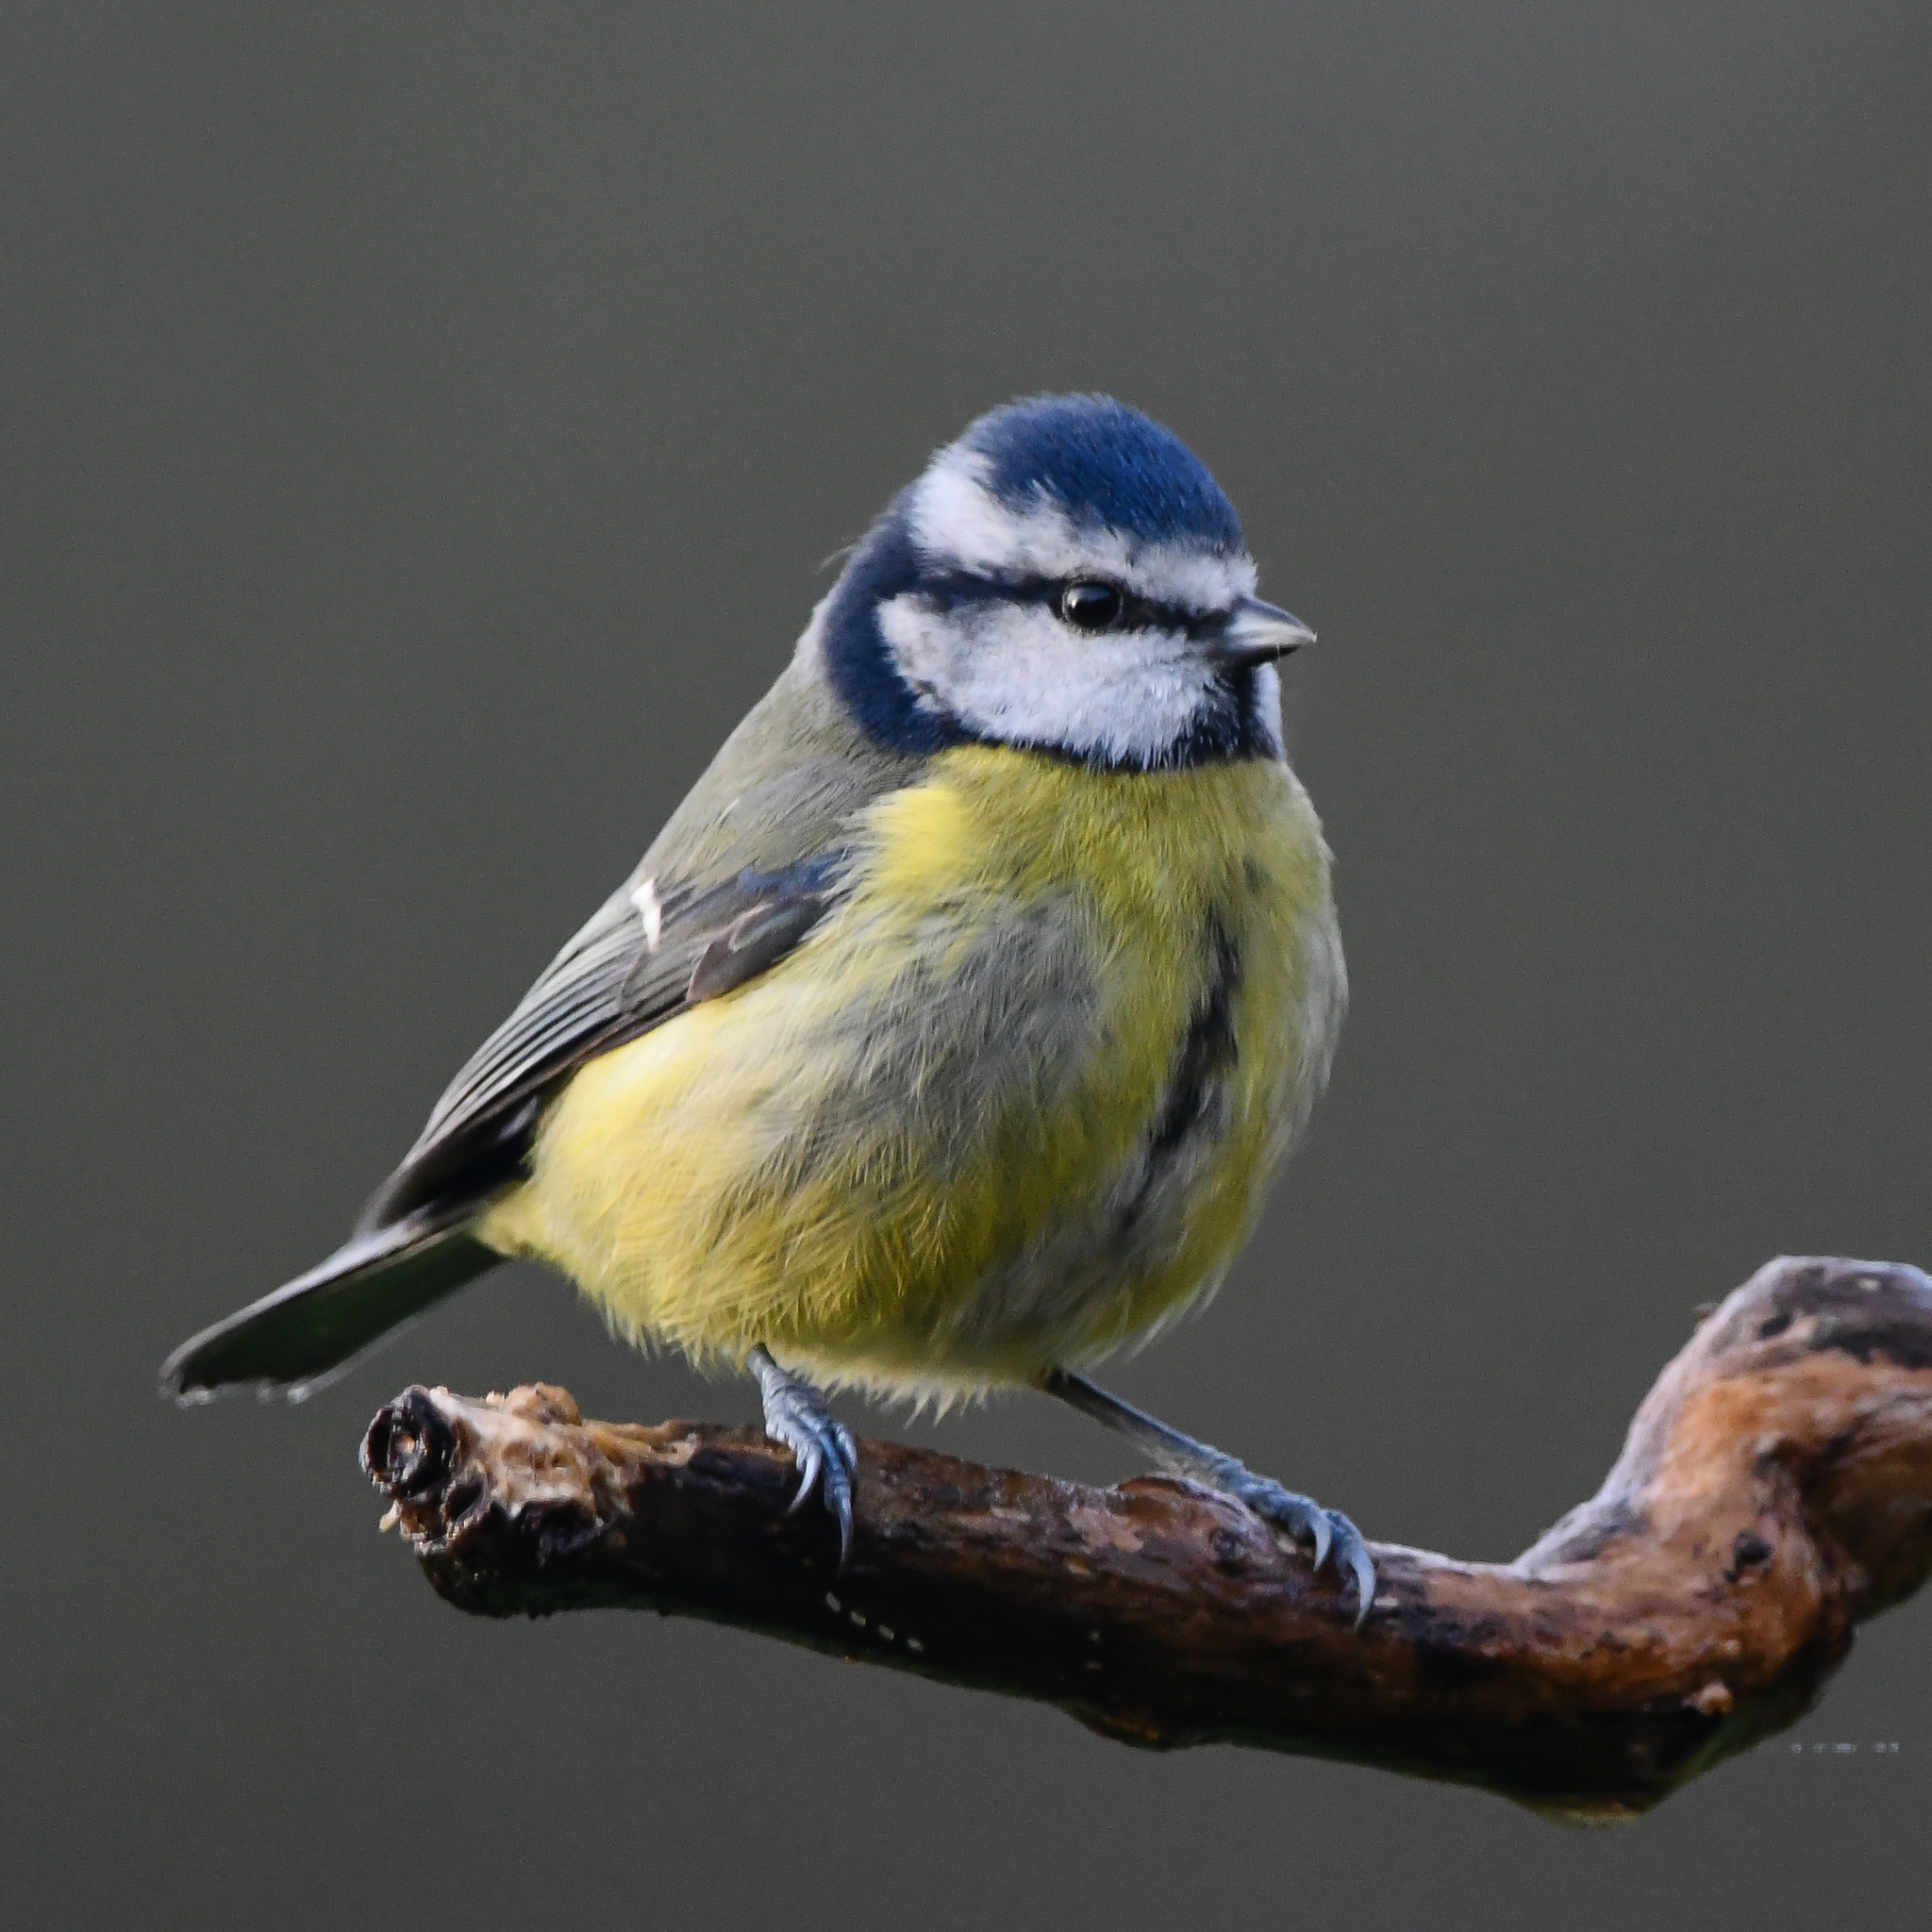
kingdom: Animalia
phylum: Chordata
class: Aves
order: Passeriformes
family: Paridae
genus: Cyanistes
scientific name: Cyanistes caeruleus
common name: Eurasian blue tit
